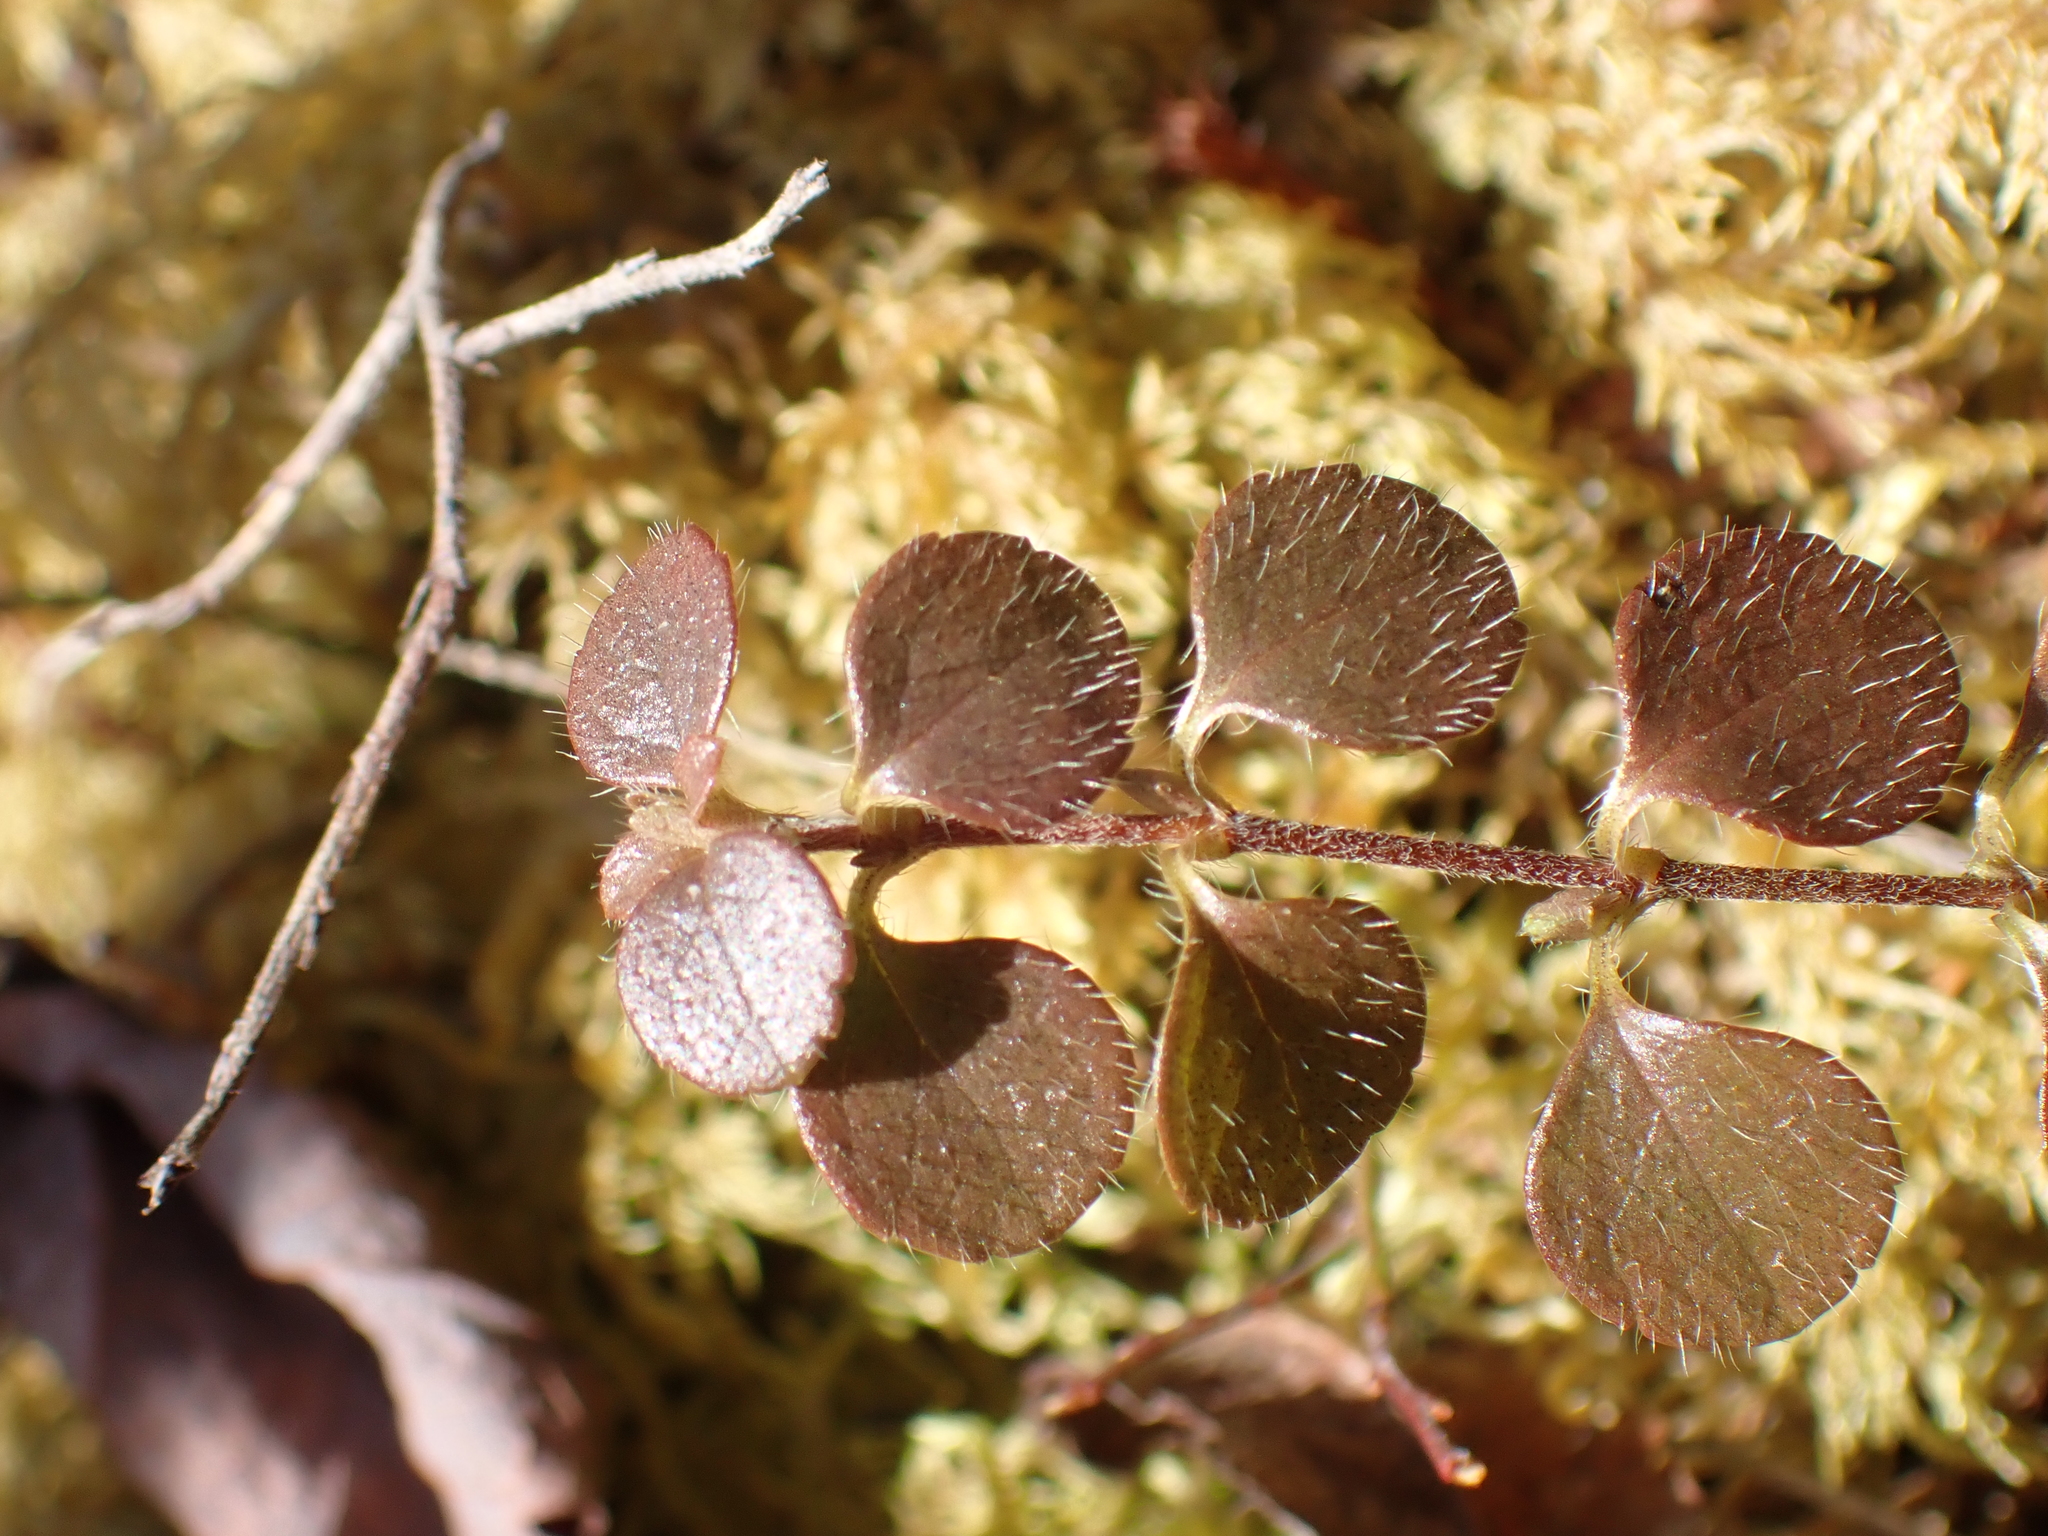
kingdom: Plantae
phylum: Tracheophyta
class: Magnoliopsida
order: Dipsacales
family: Caprifoliaceae
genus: Linnaea
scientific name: Linnaea borealis
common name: Twinflower
